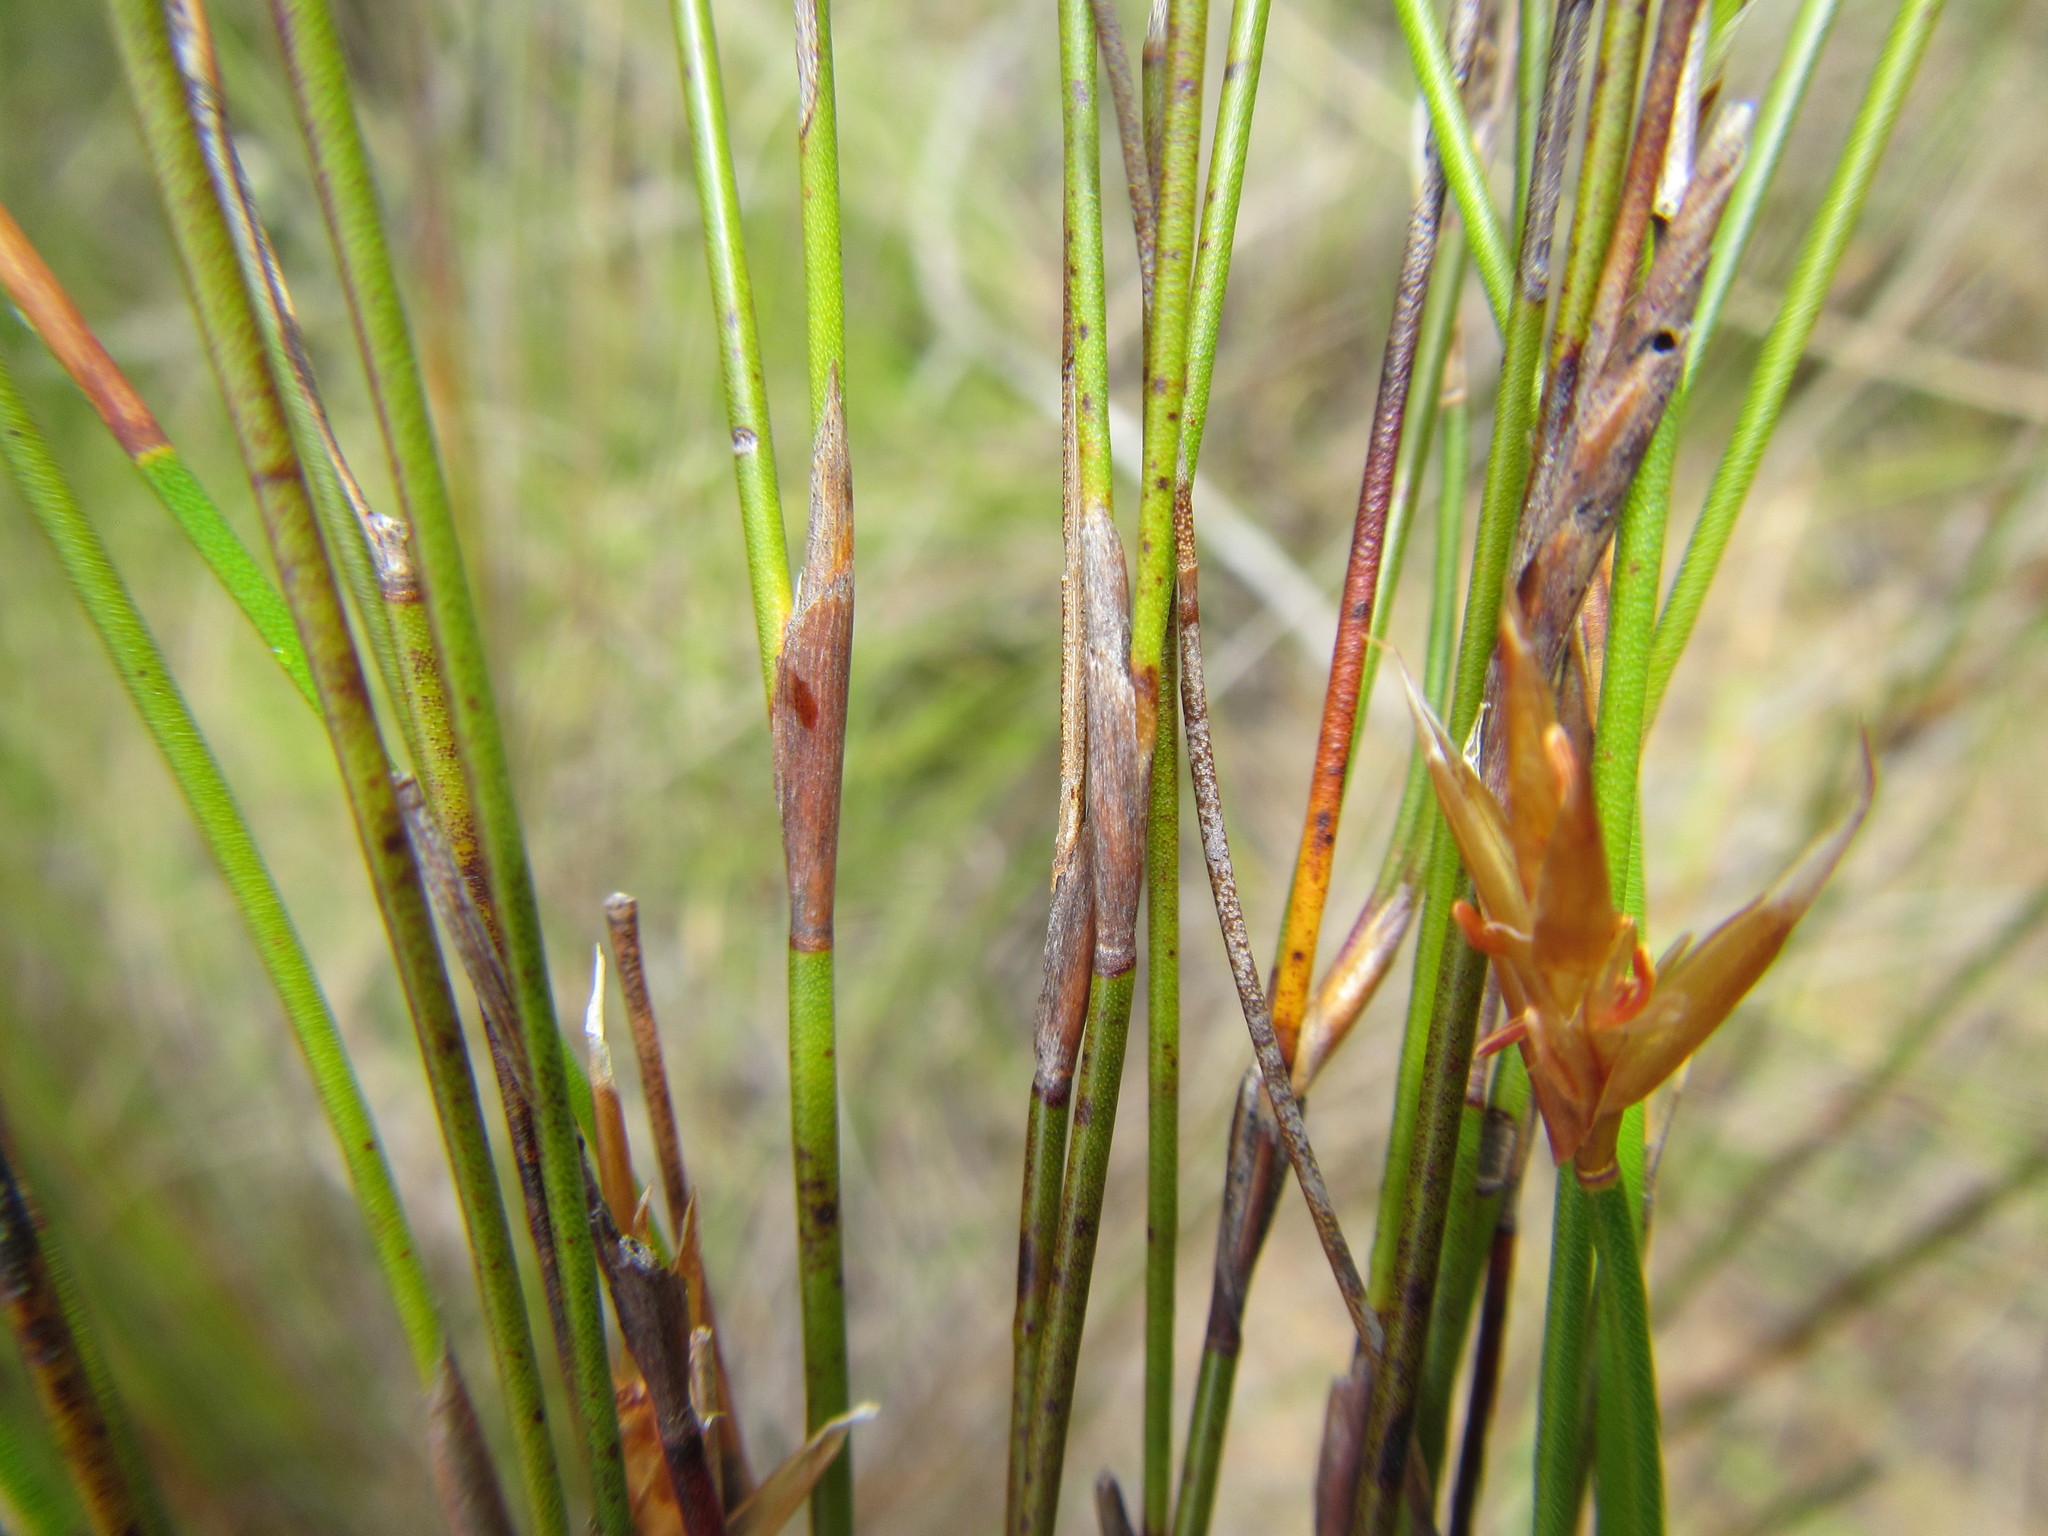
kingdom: Plantae
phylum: Tracheophyta
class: Liliopsida
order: Poales
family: Restionaceae
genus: Restio
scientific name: Restio distichus
